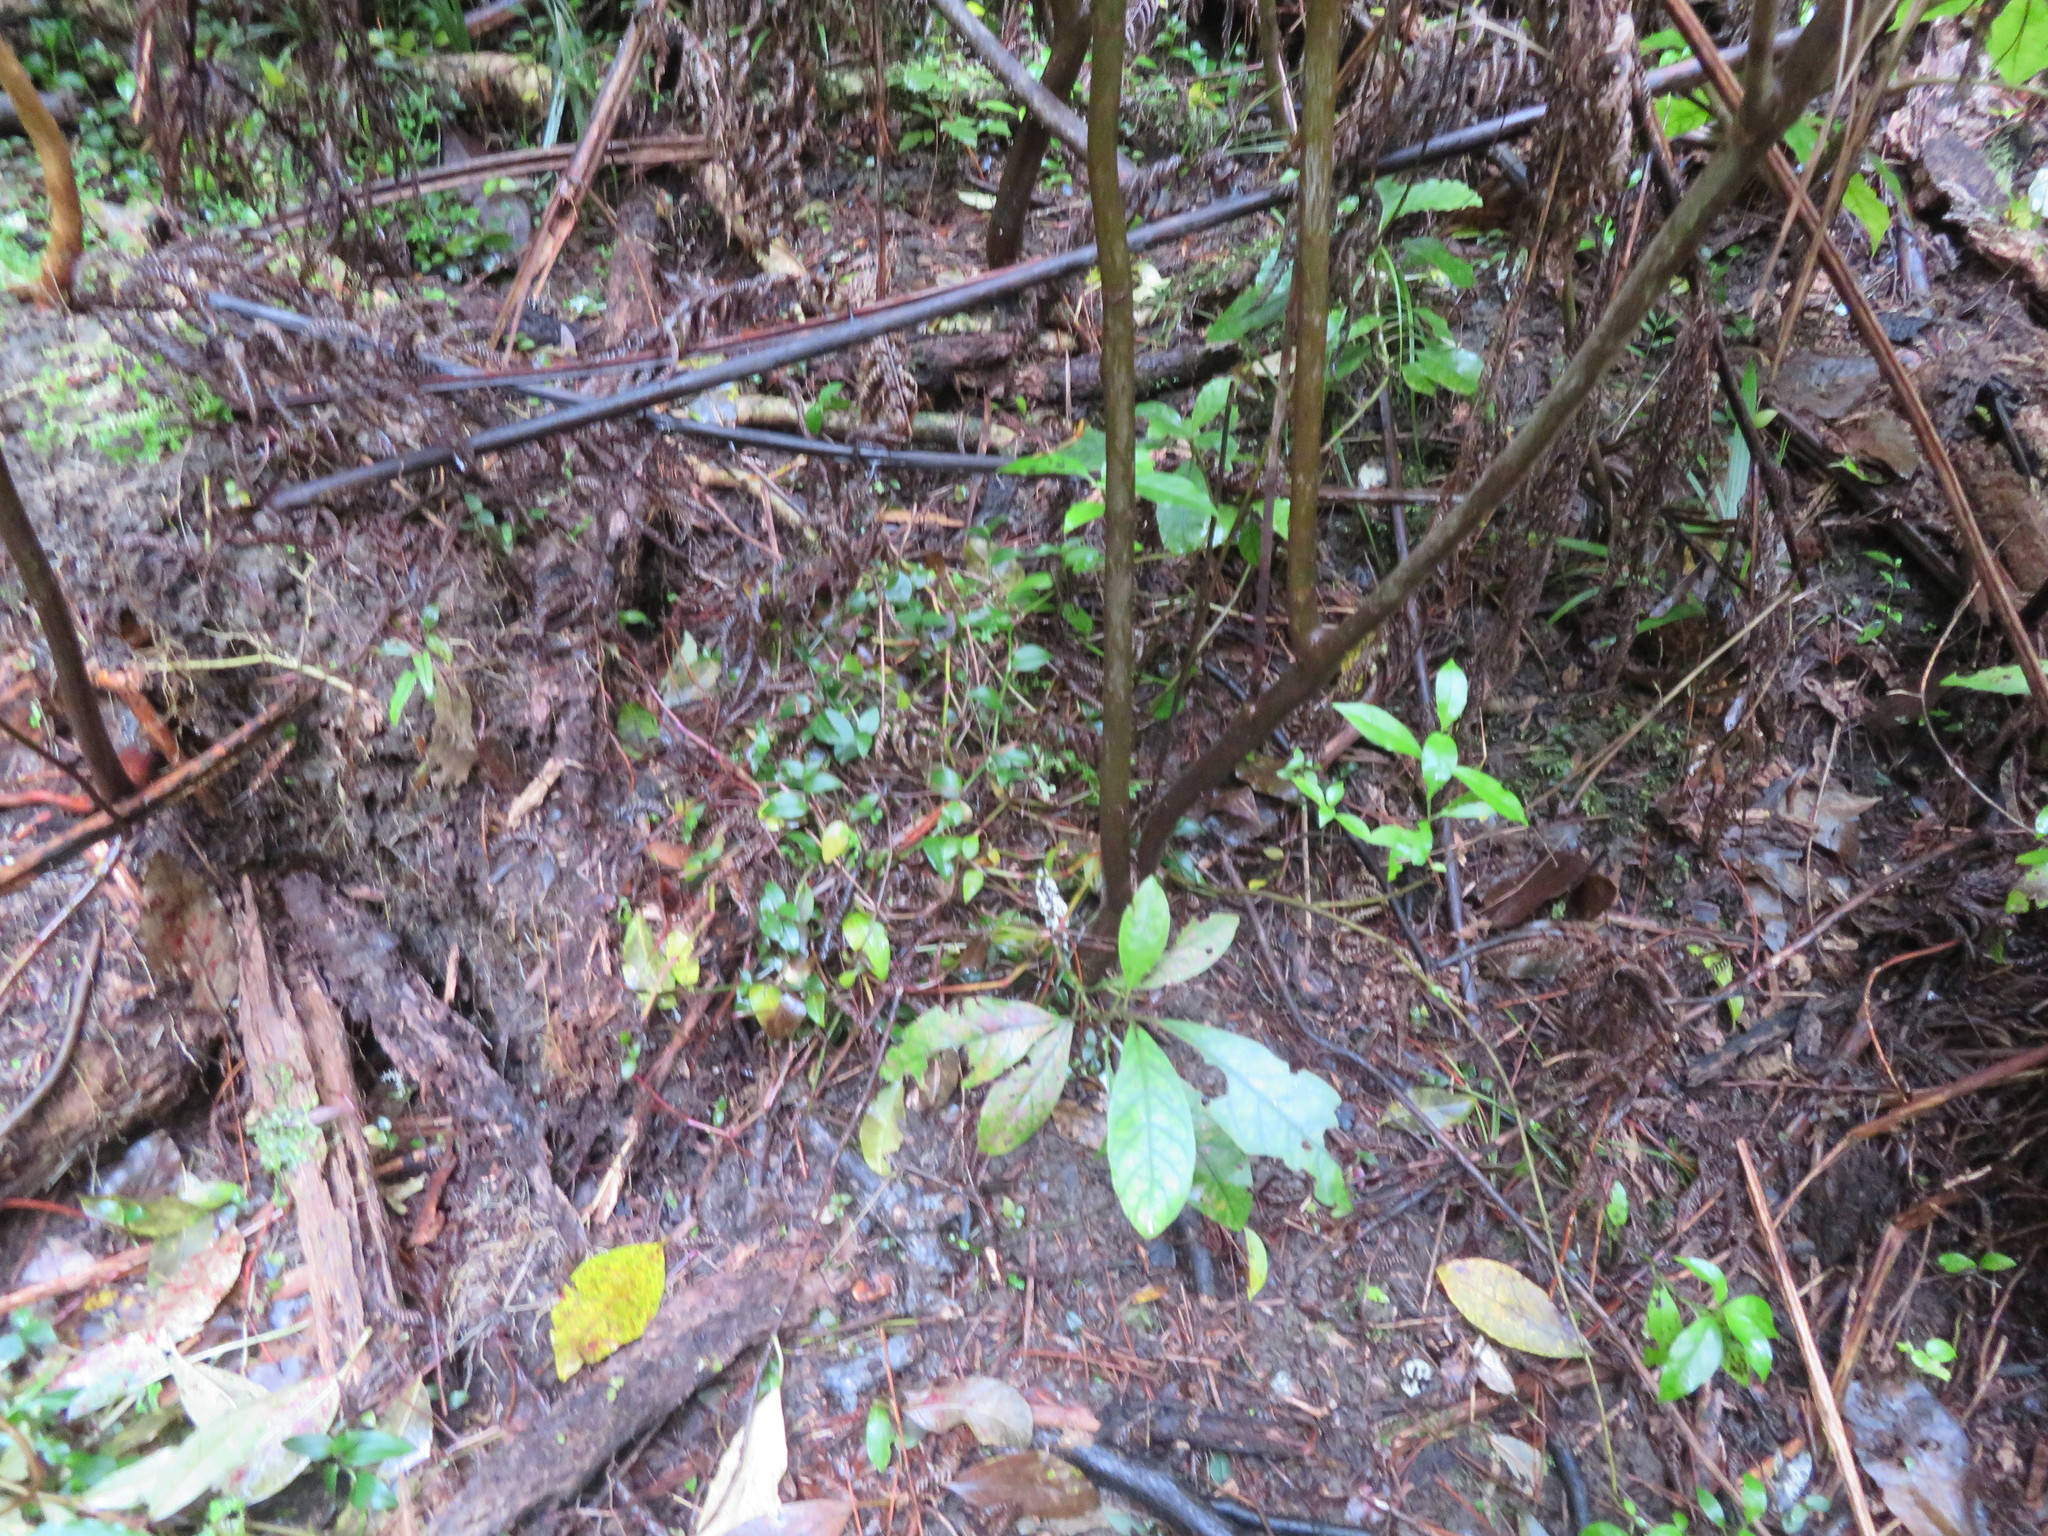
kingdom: Plantae
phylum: Tracheophyta
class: Magnoliopsida
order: Gentianales
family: Rubiaceae
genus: Coprosma
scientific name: Coprosma autumnalis
